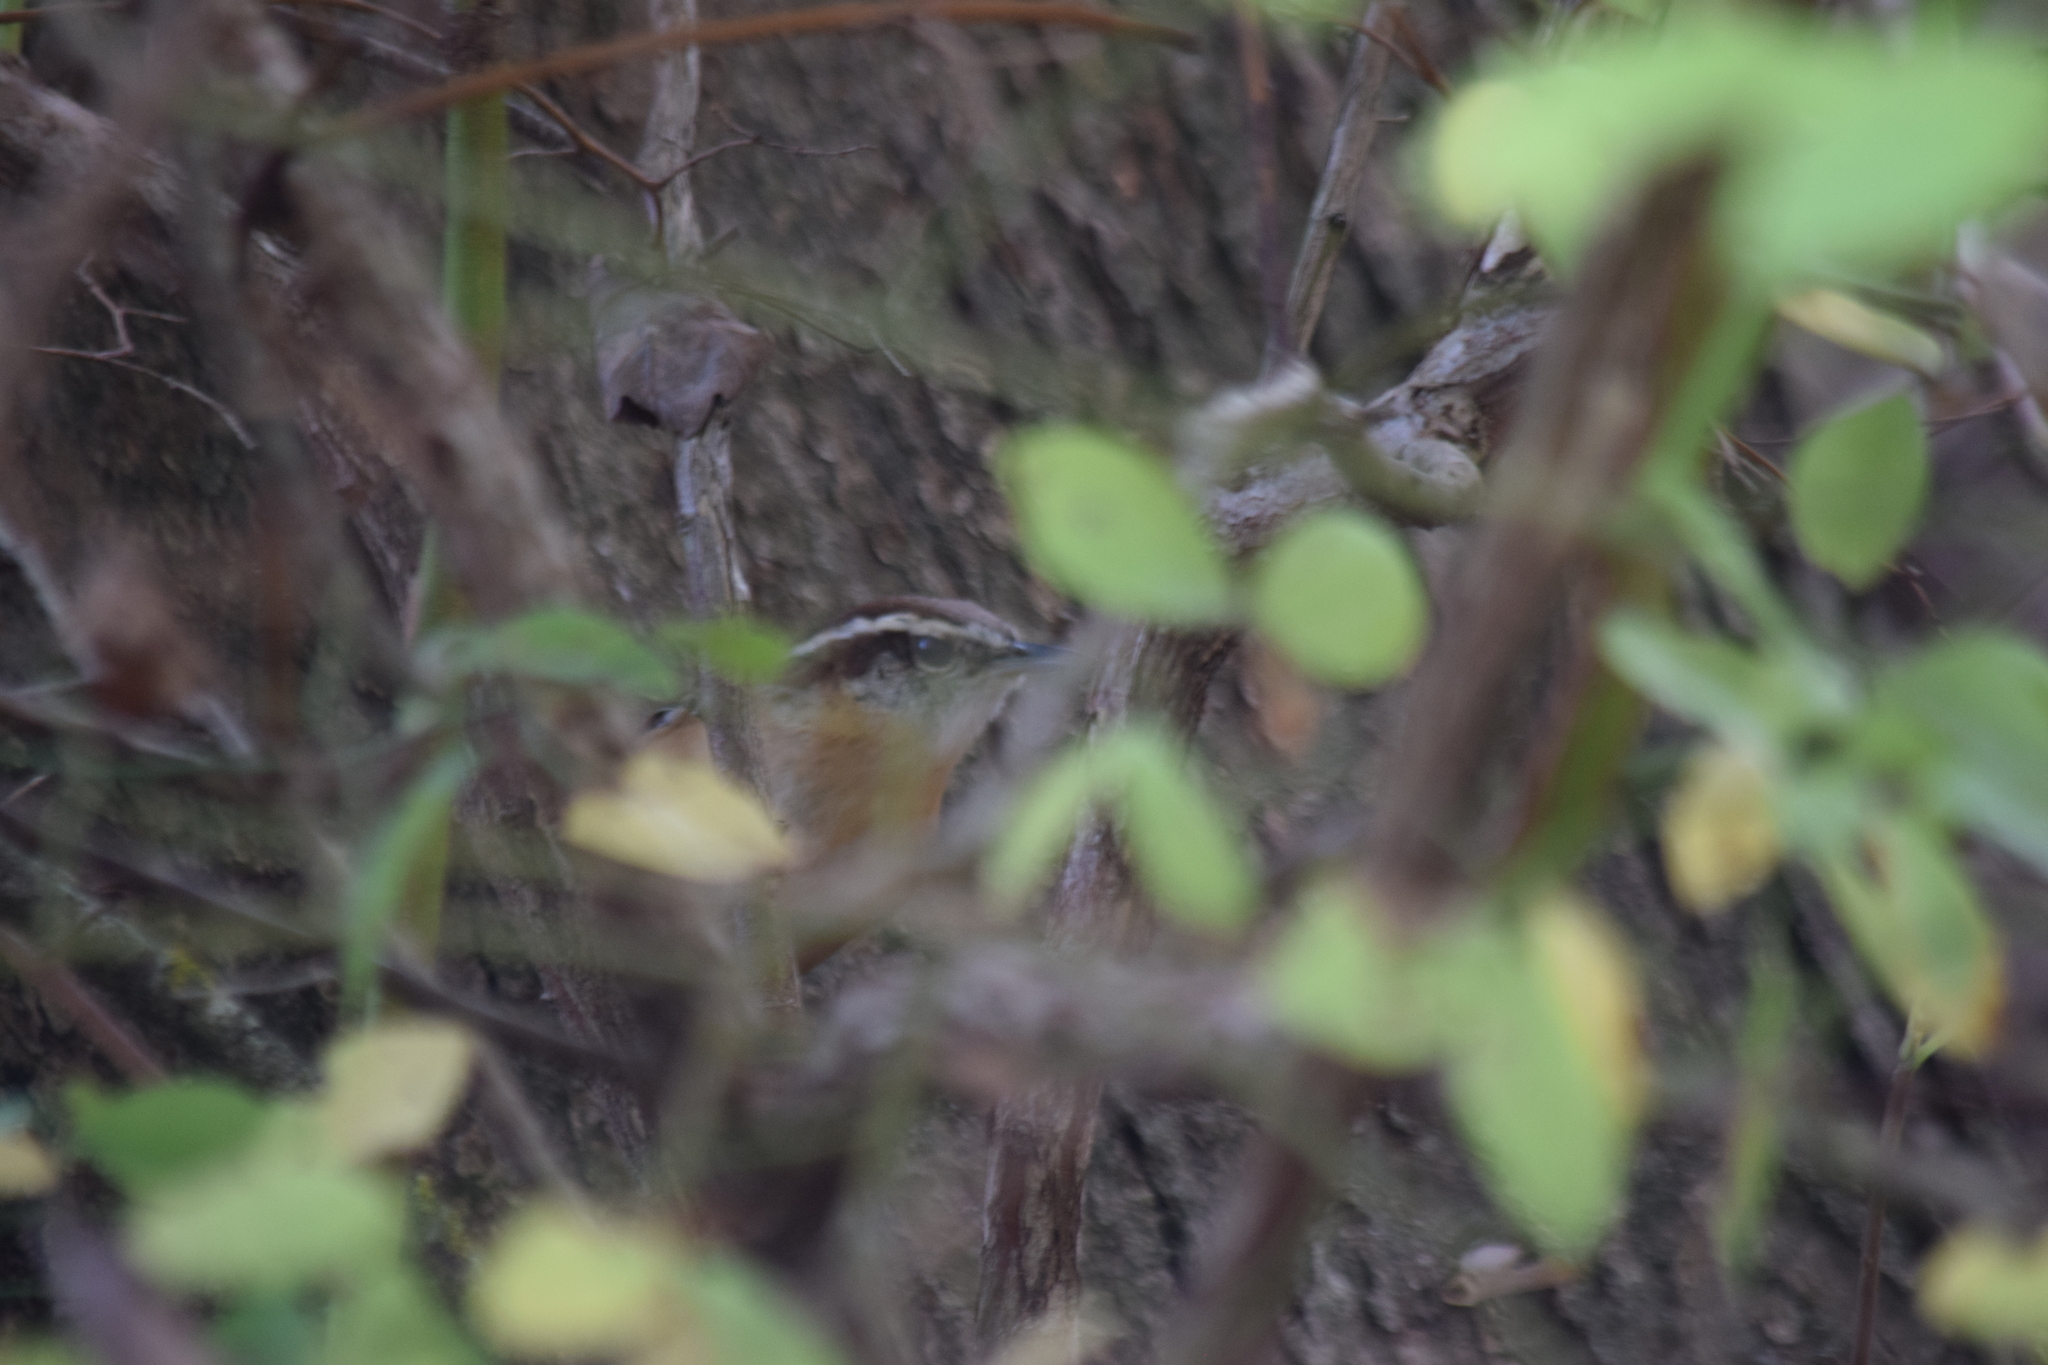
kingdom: Animalia
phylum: Chordata
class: Aves
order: Passeriformes
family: Troglodytidae
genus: Thryothorus
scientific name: Thryothorus ludovicianus
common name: Carolina wren
